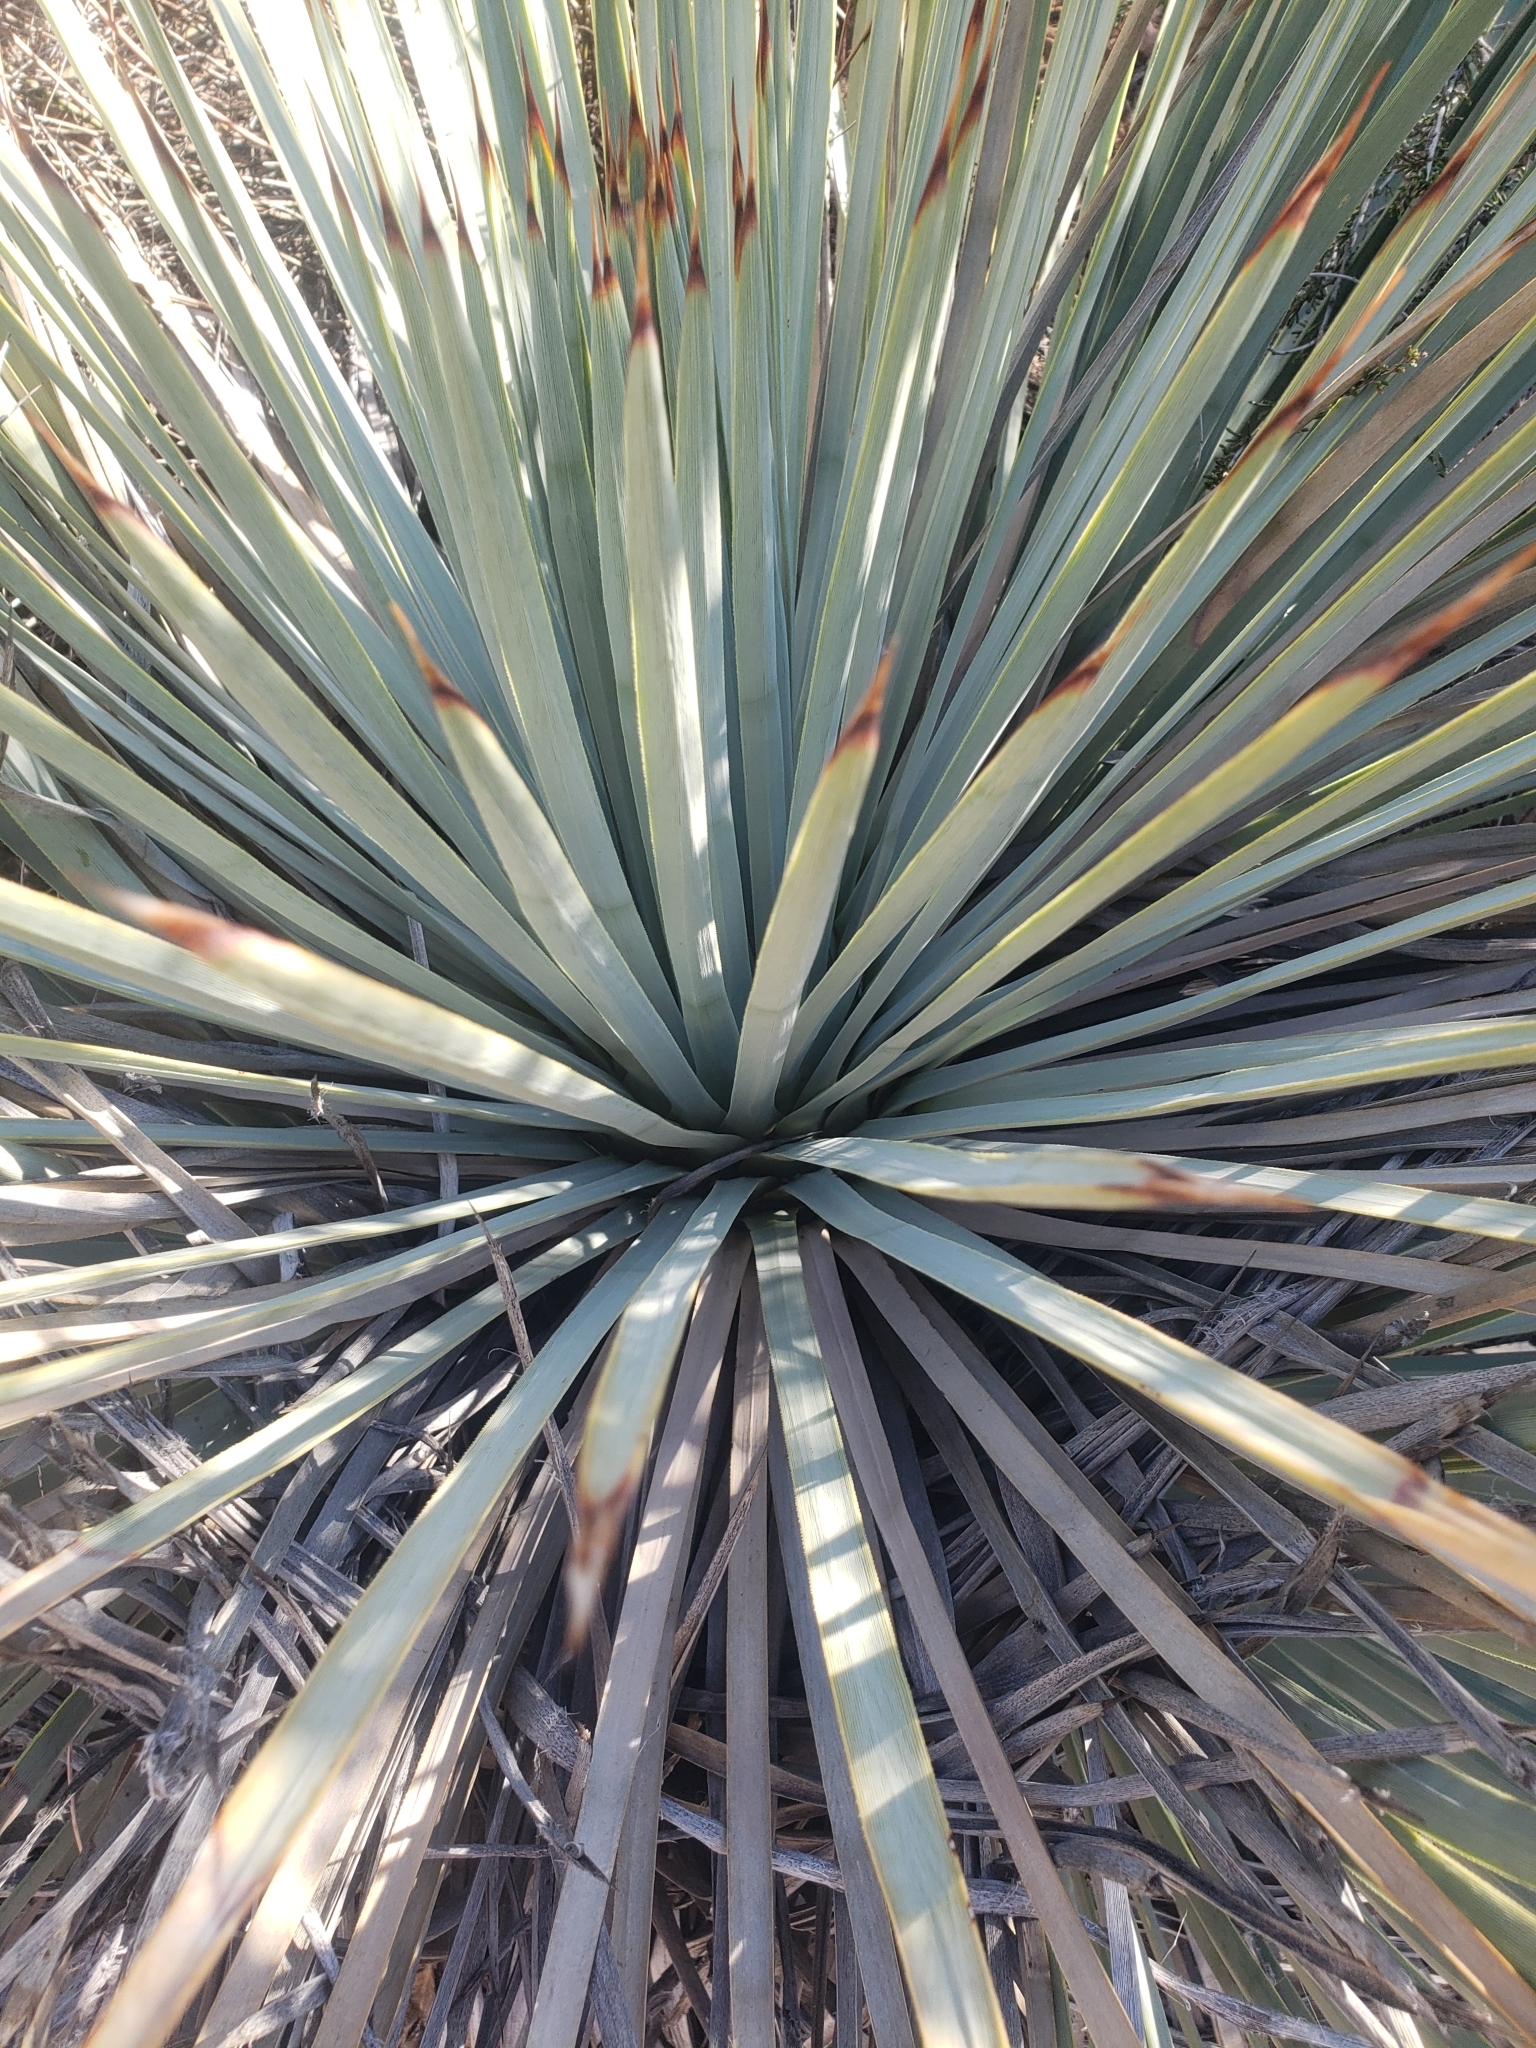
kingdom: Plantae
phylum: Tracheophyta
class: Liliopsida
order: Asparagales
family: Asparagaceae
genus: Hesperoyucca
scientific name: Hesperoyucca whipplei
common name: Our lord's-candle
